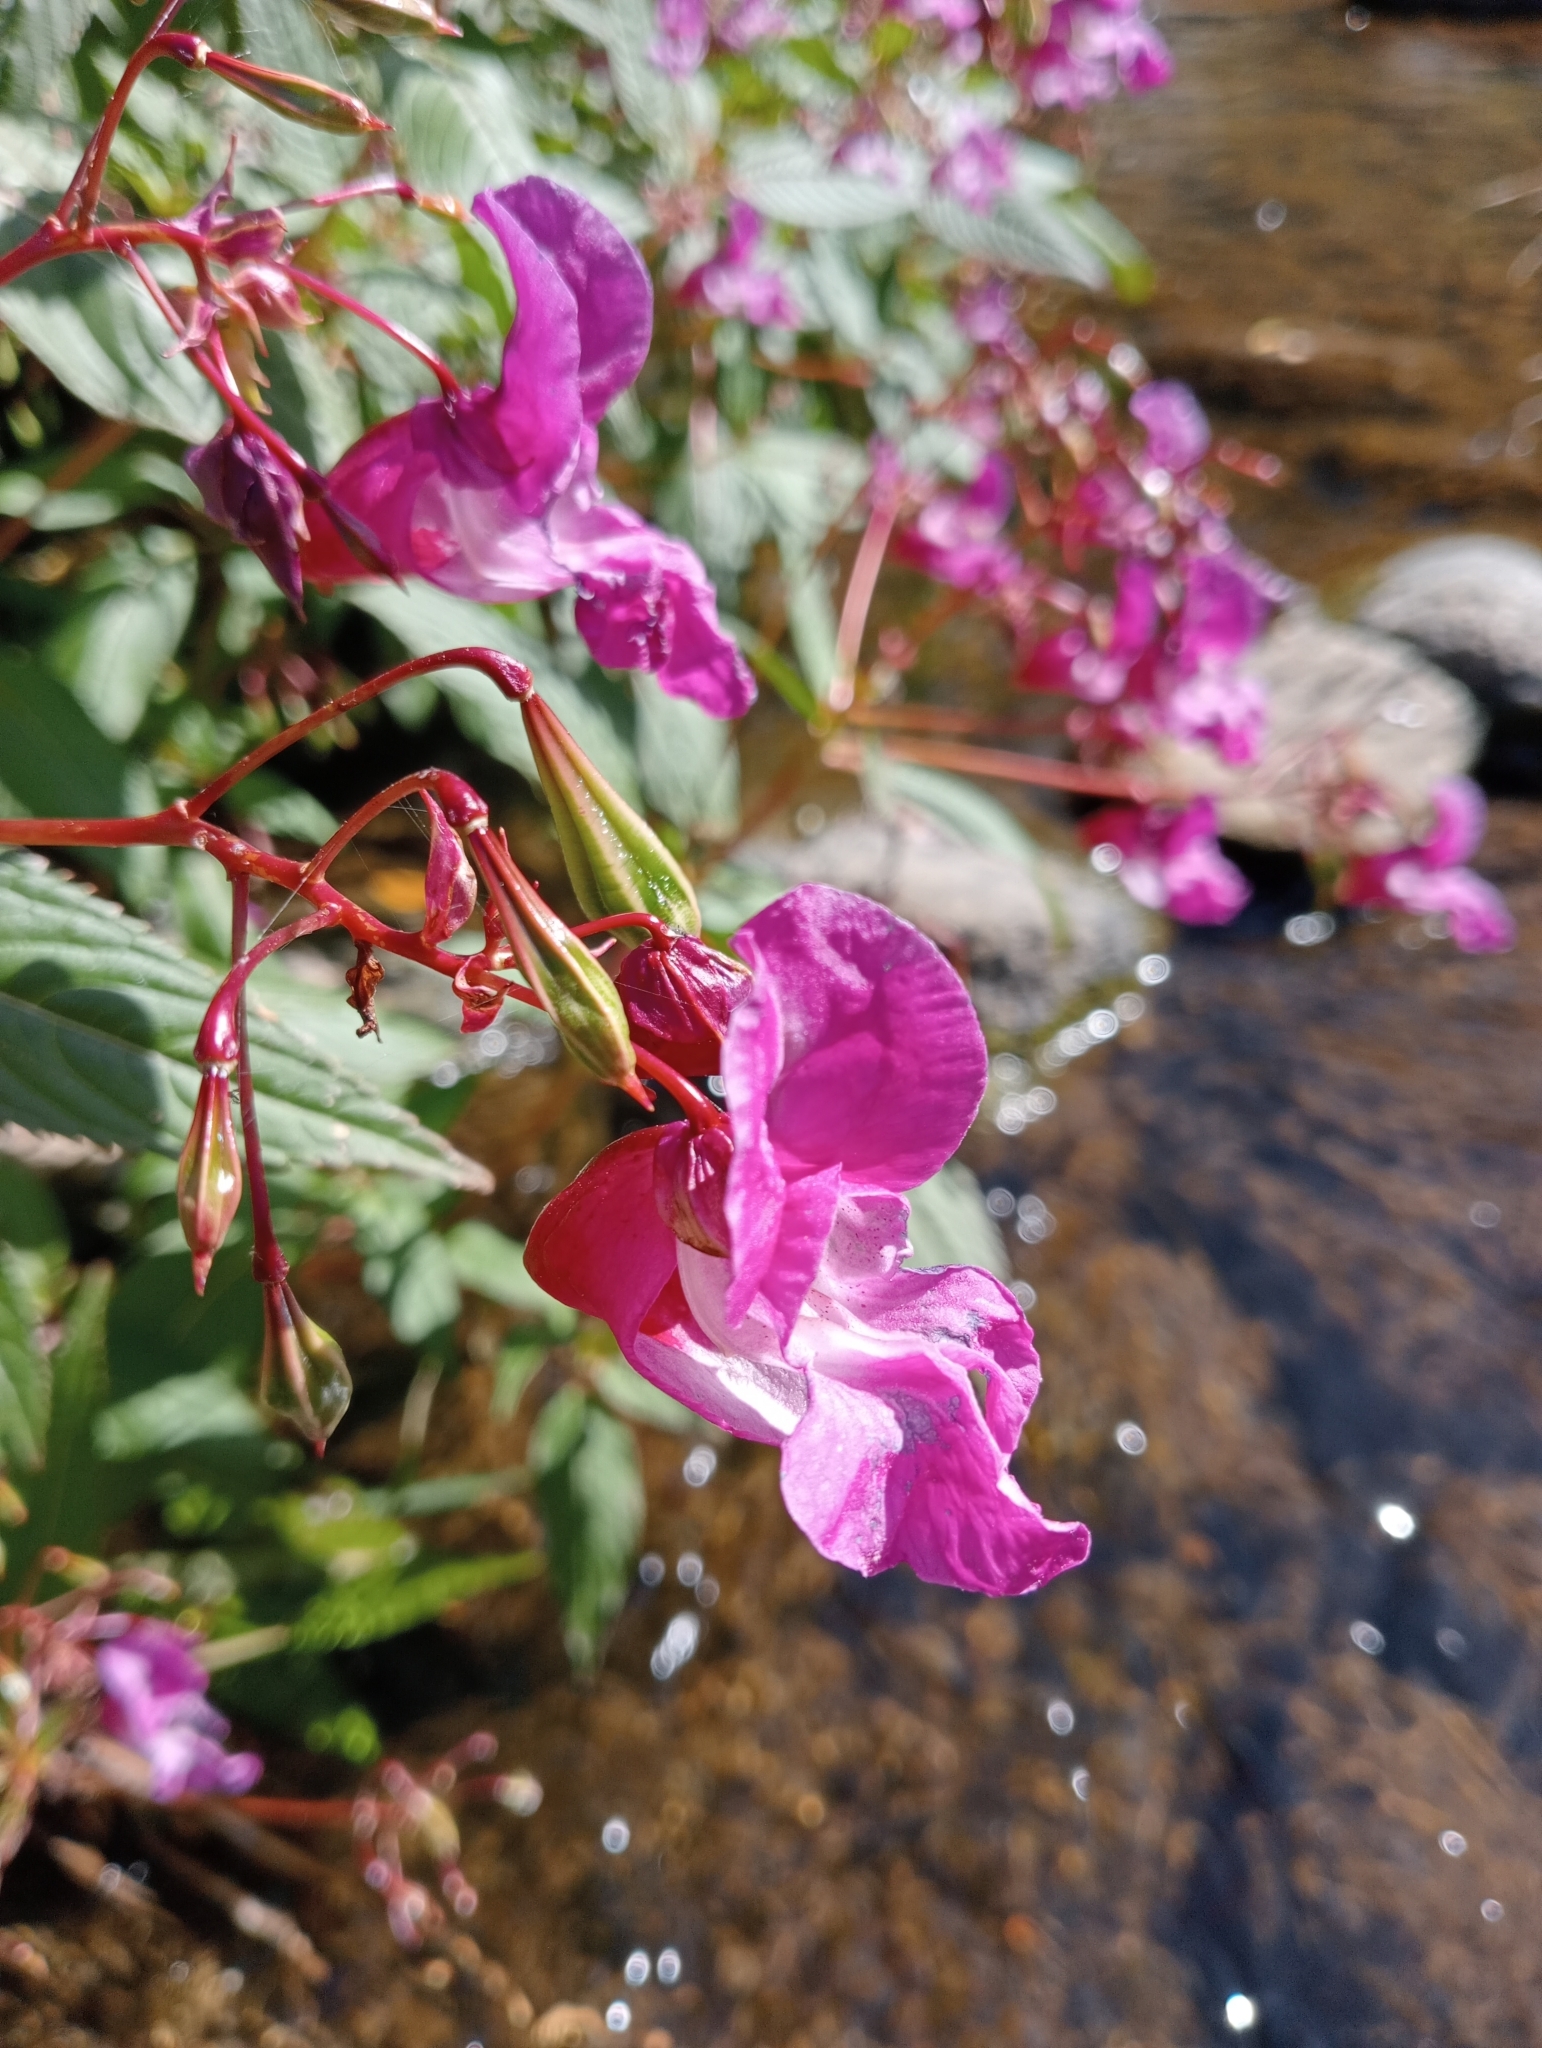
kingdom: Plantae
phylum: Tracheophyta
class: Magnoliopsida
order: Ericales
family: Balsaminaceae
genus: Impatiens
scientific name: Impatiens glandulifera
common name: Himalayan balsam
